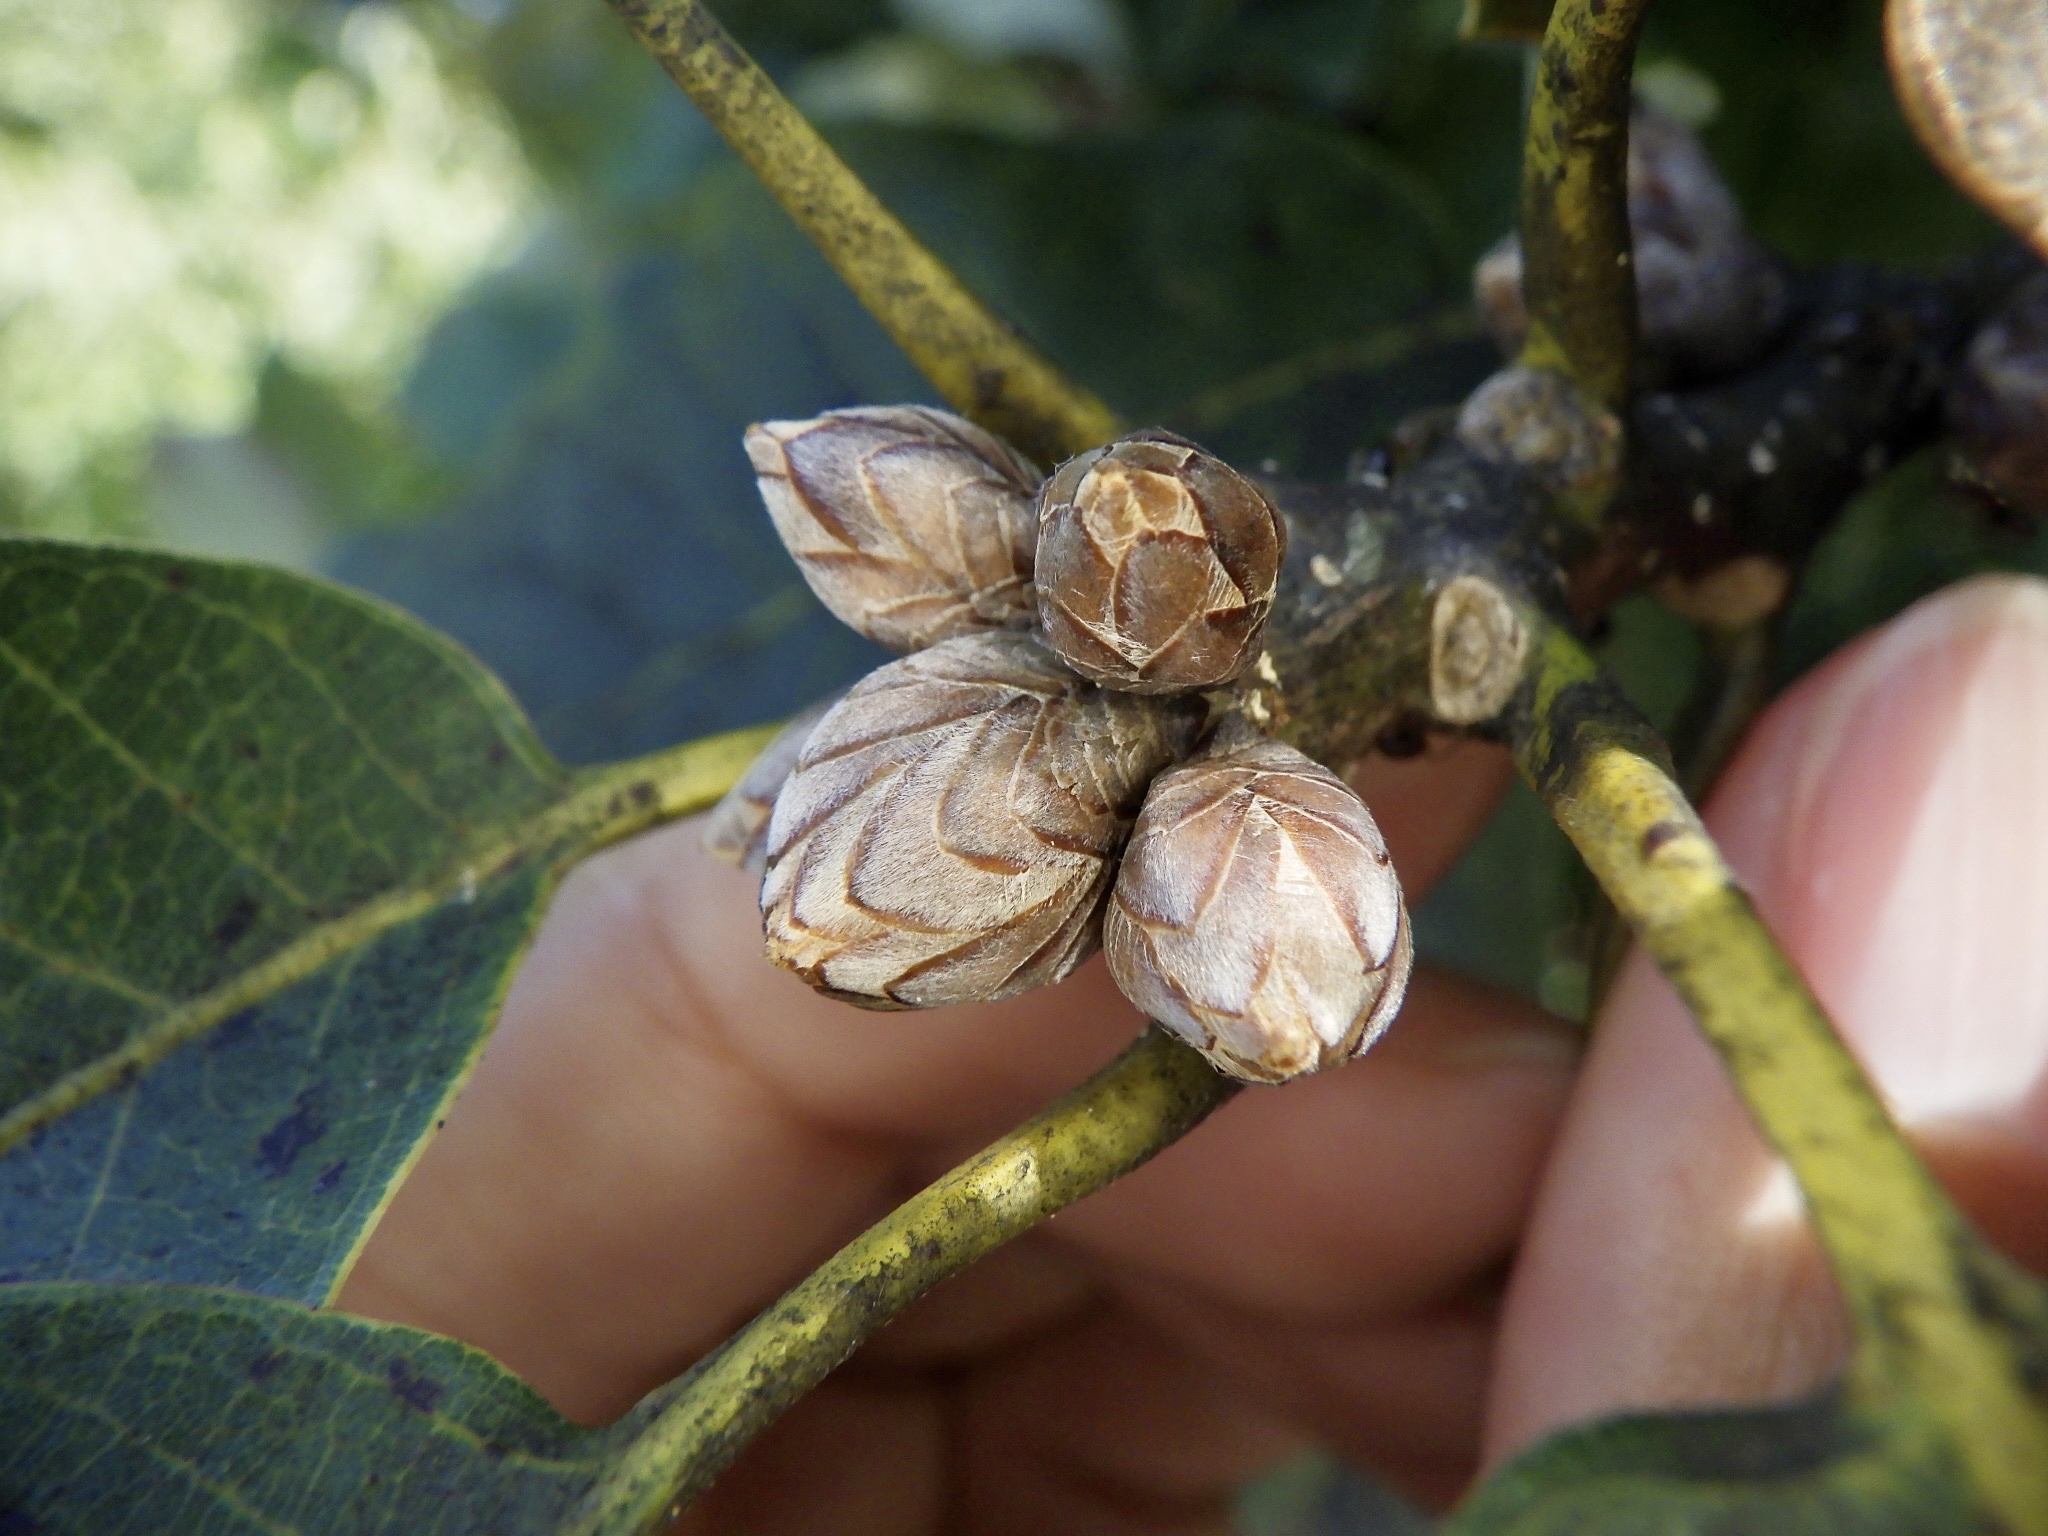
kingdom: Plantae
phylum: Tracheophyta
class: Magnoliopsida
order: Fagales
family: Fagaceae
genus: Quercus
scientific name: Quercus aliena
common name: Oriental white oak
